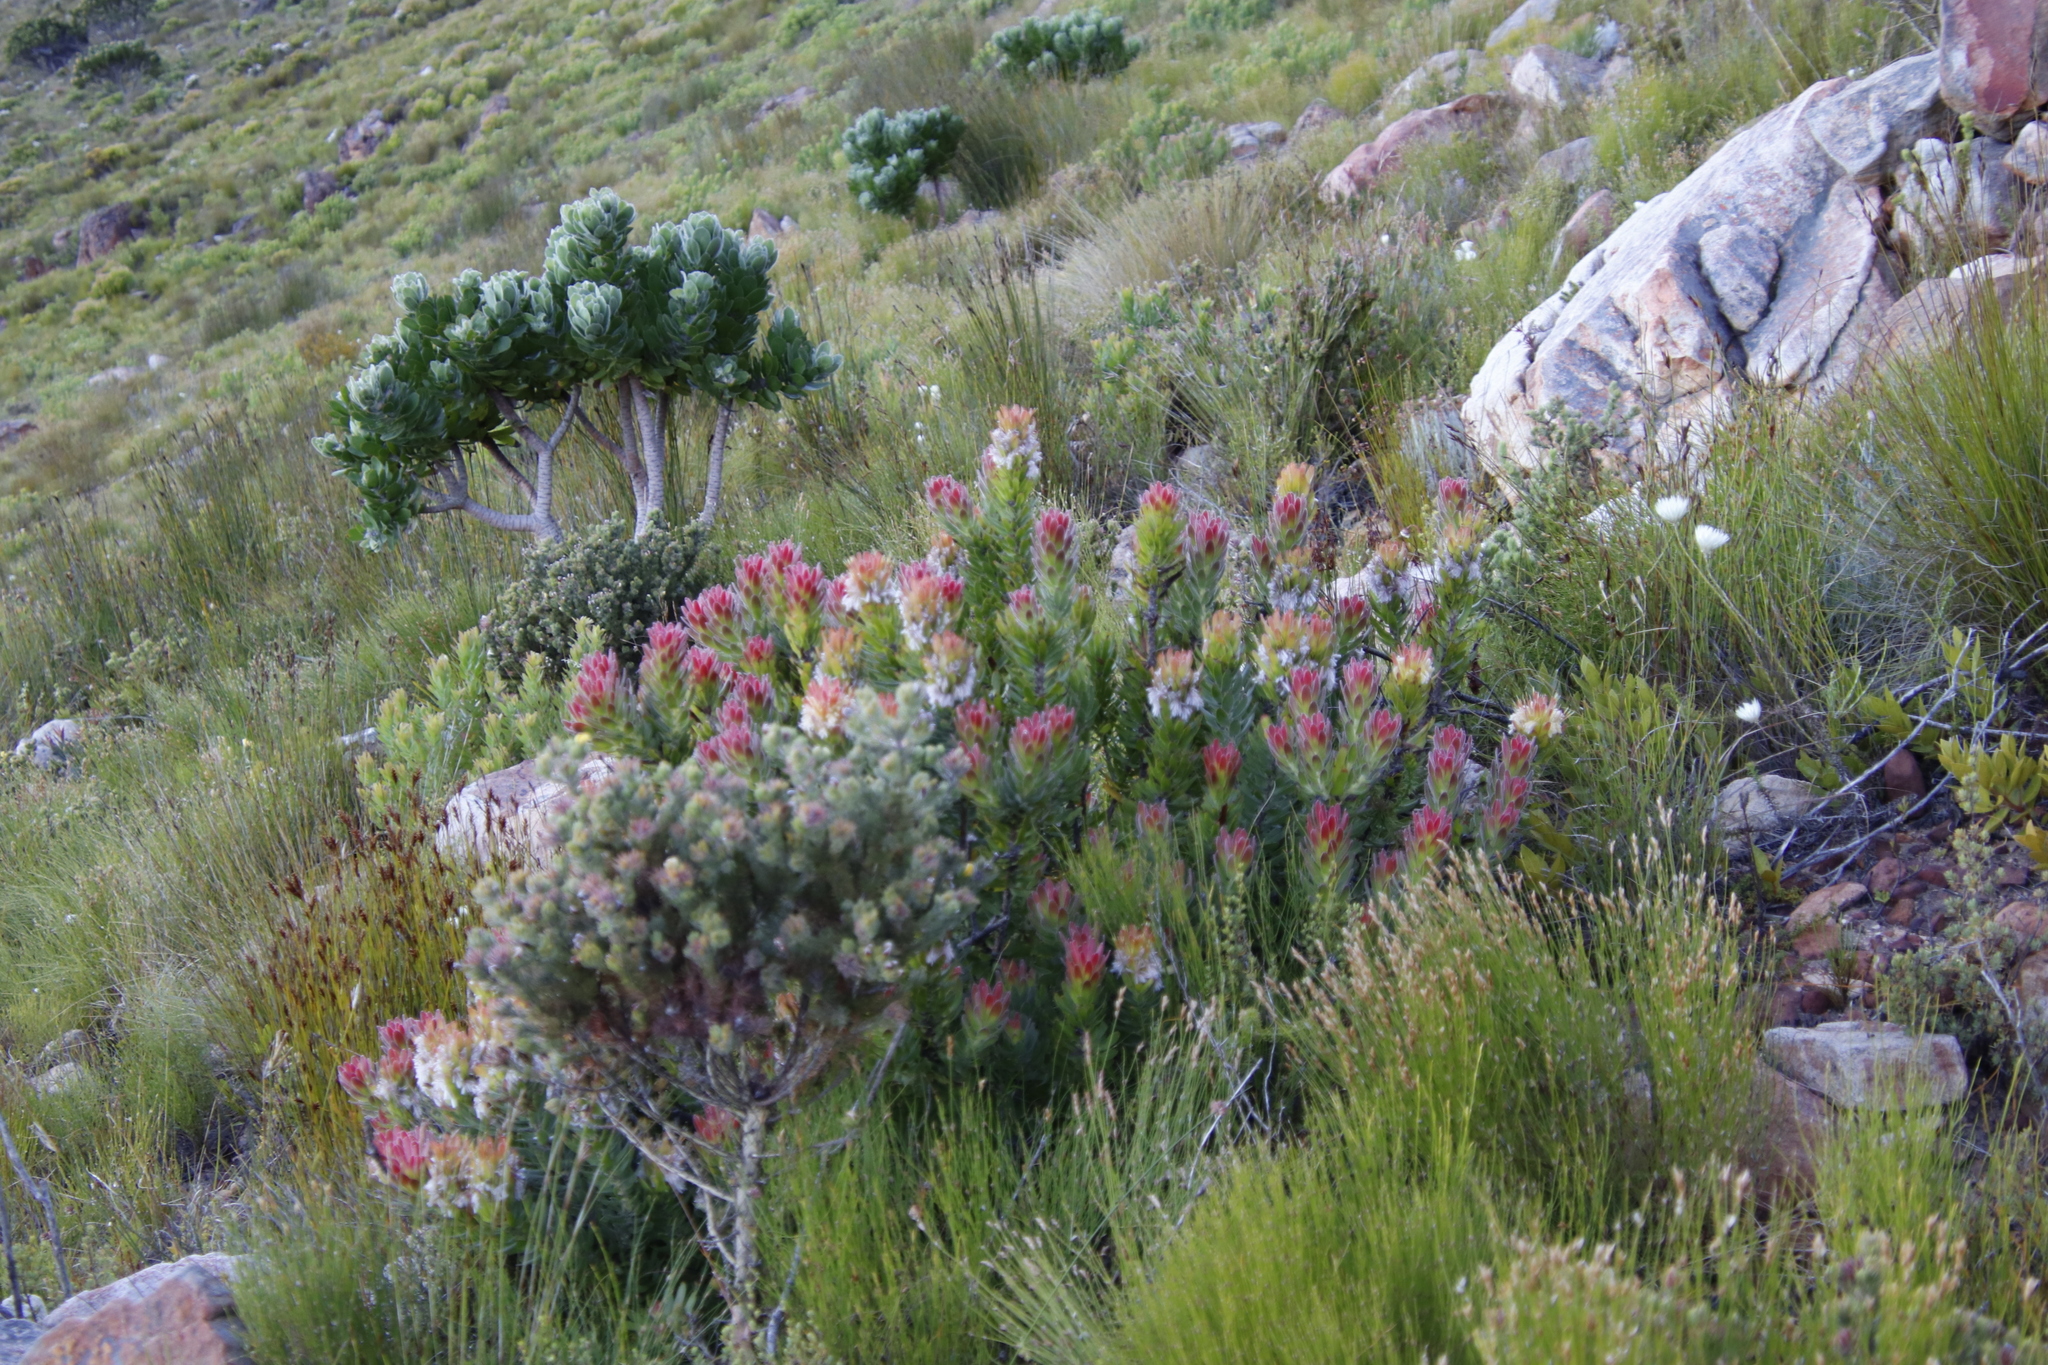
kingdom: Plantae
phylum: Tracheophyta
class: Magnoliopsida
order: Proteales
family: Proteaceae
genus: Mimetes
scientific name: Mimetes cucullatus
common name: Common pagoda
